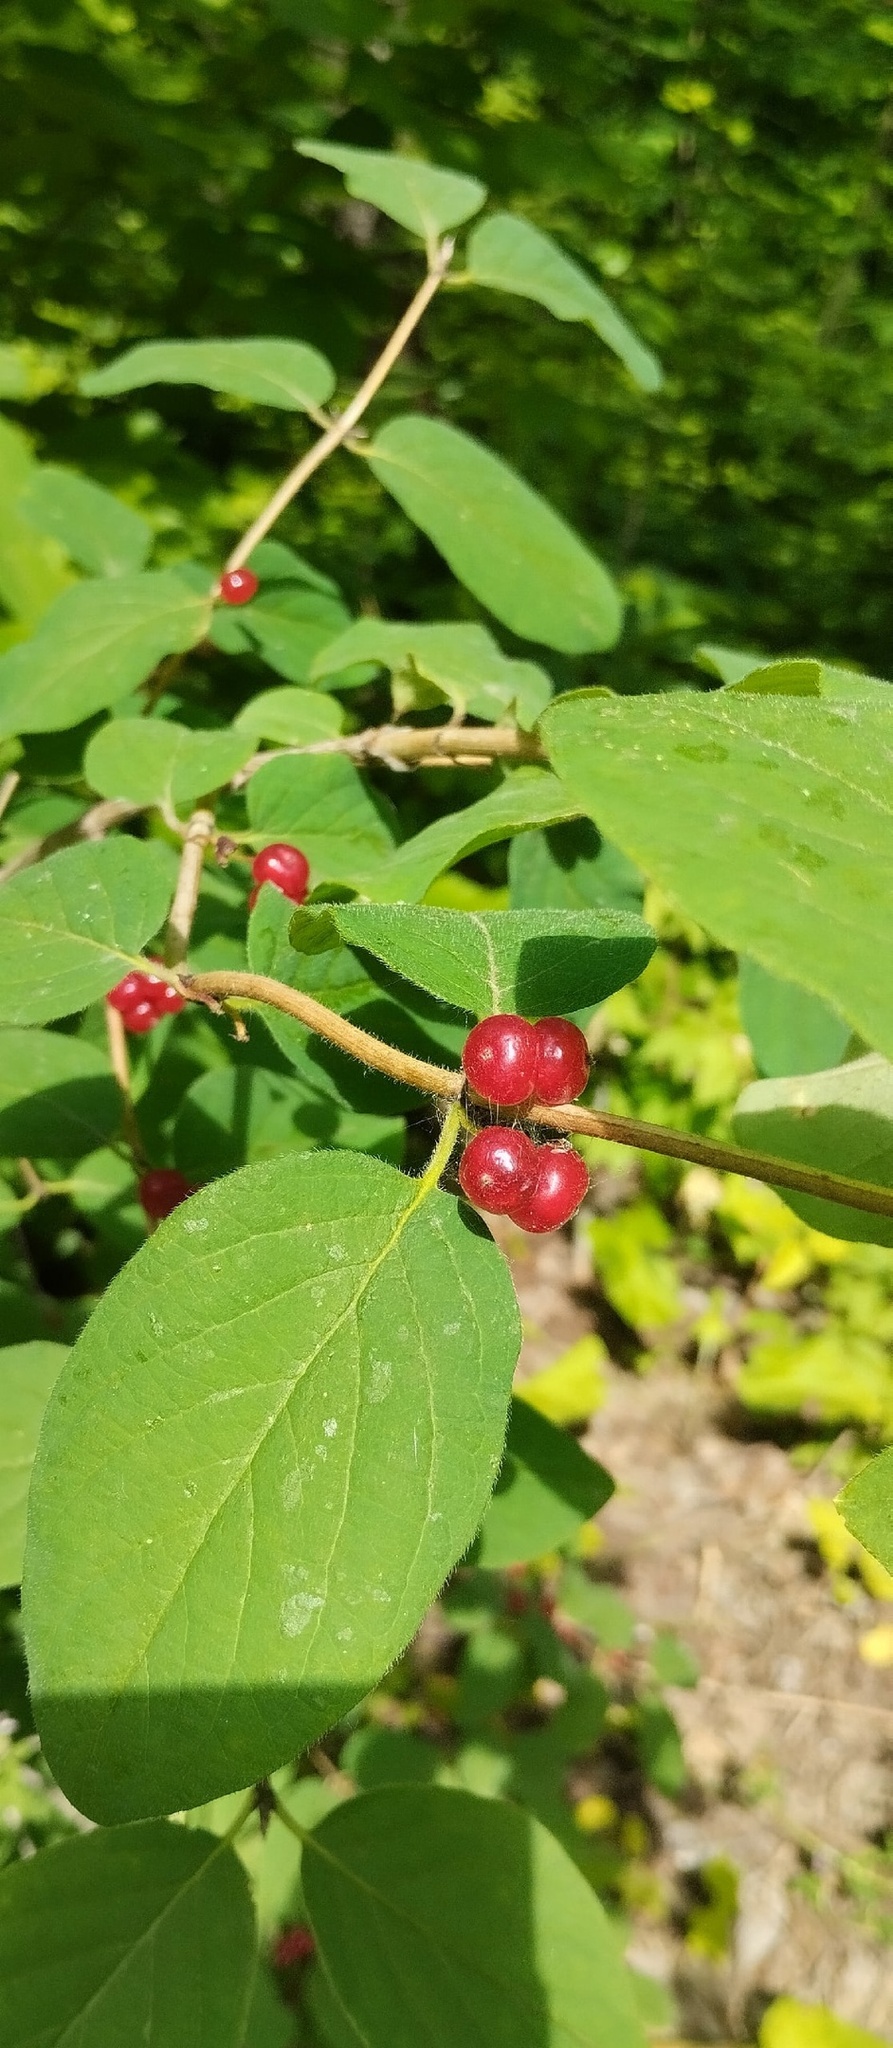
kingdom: Plantae
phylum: Tracheophyta
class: Magnoliopsida
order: Dipsacales
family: Caprifoliaceae
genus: Lonicera
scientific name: Lonicera xylosteum
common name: Fly honeysuckle
